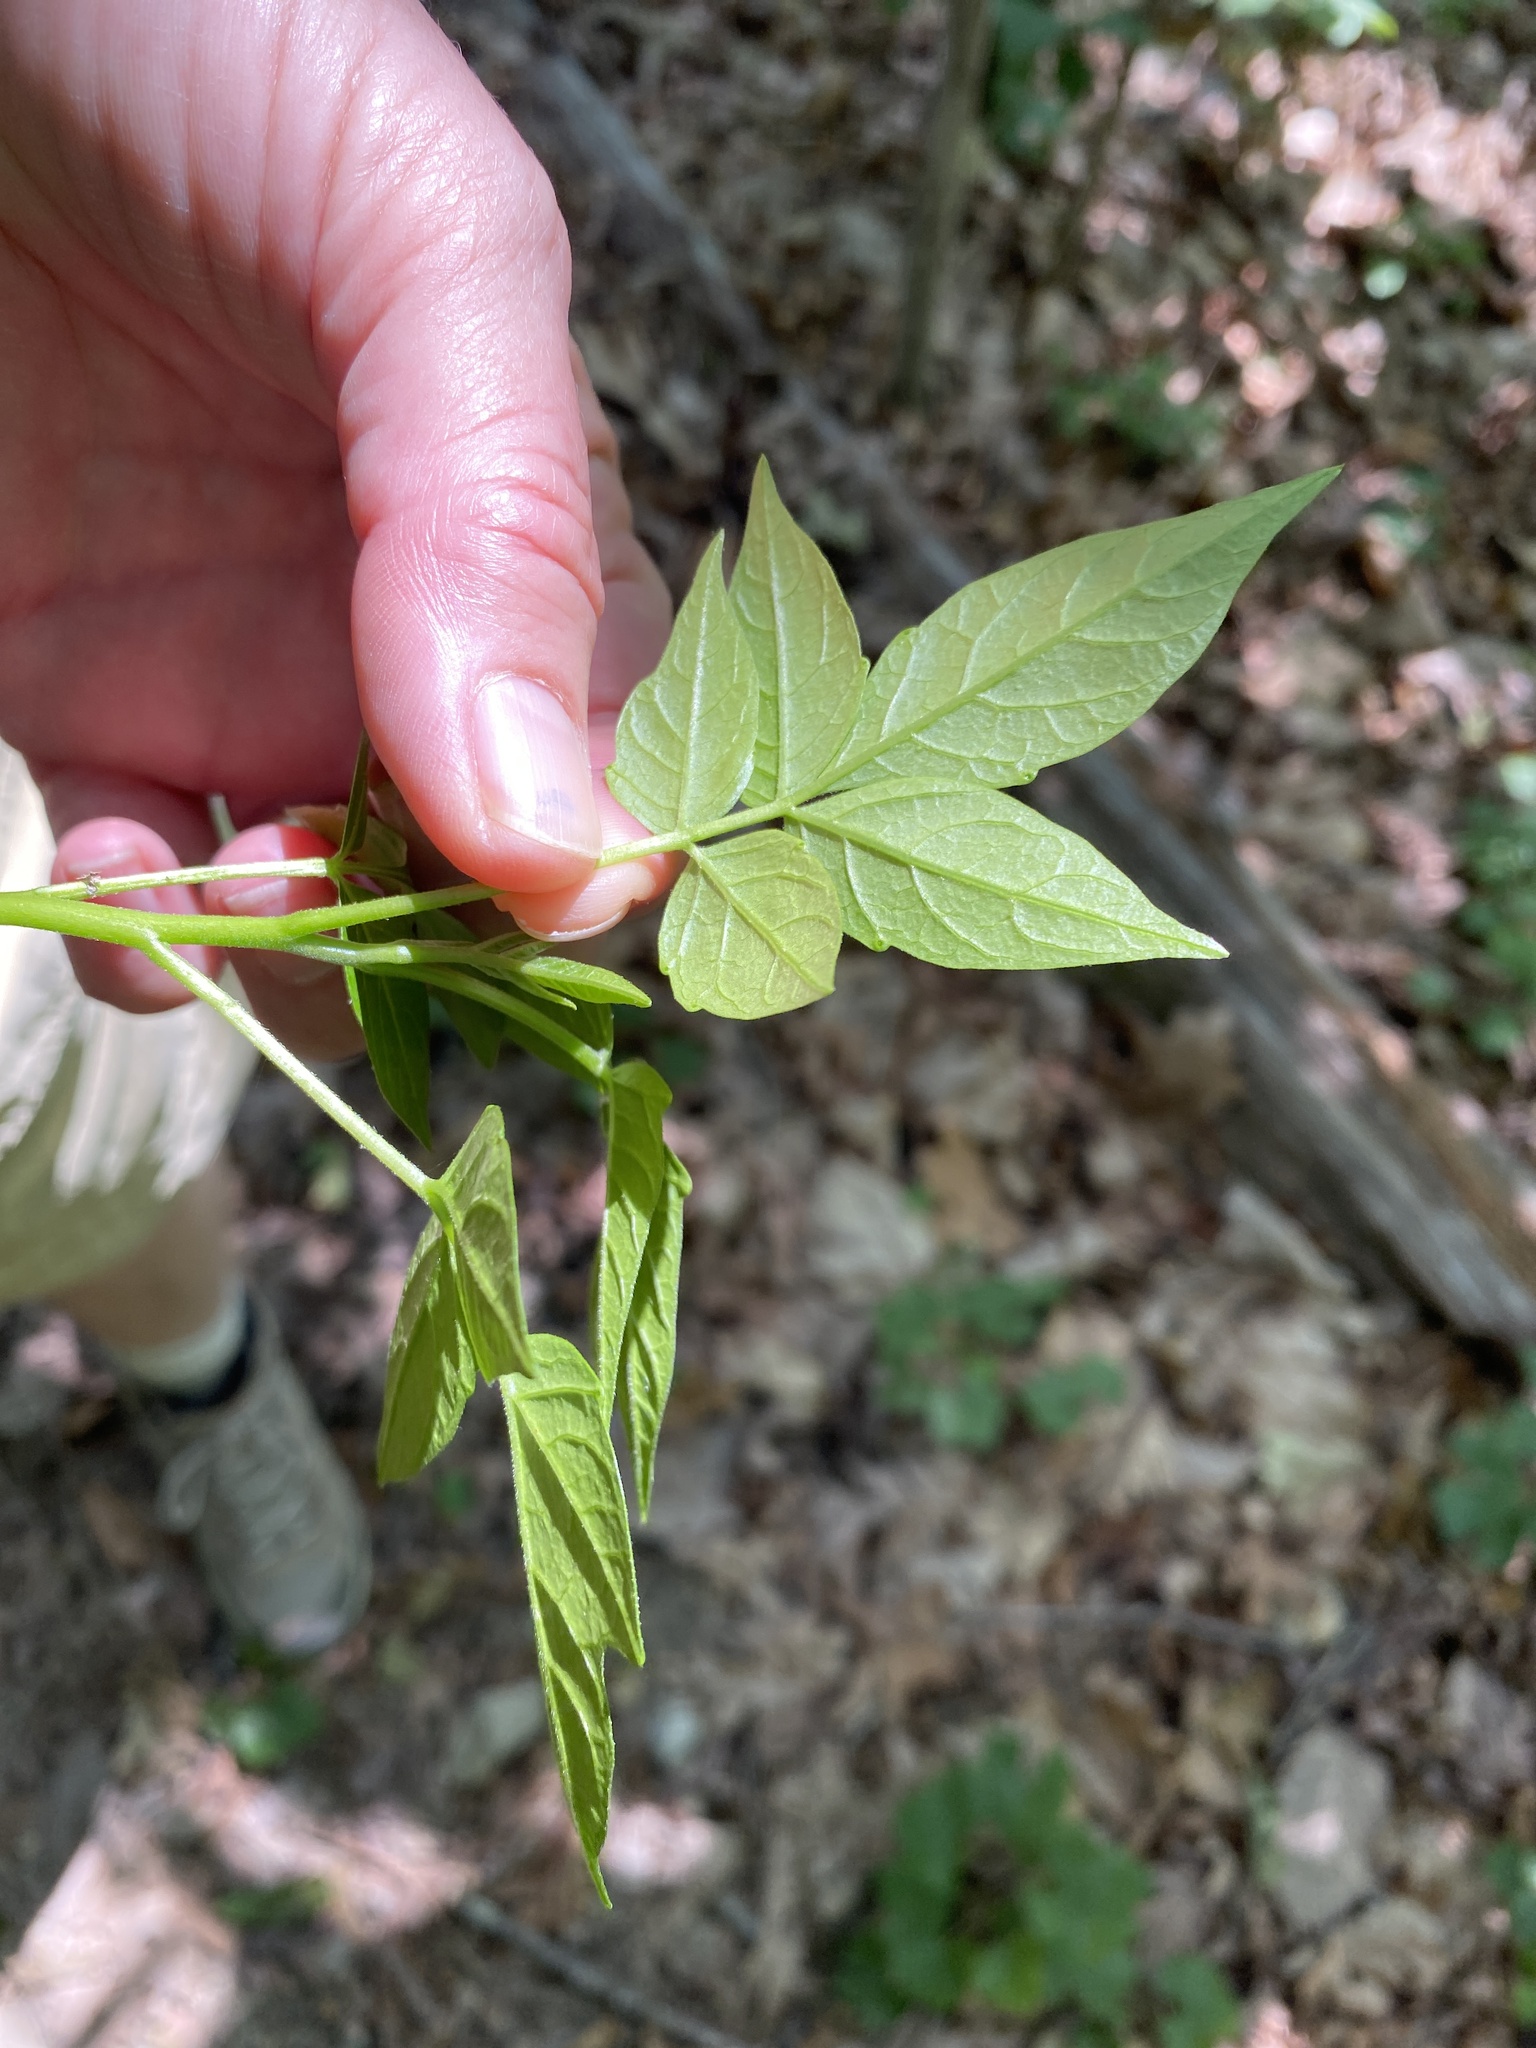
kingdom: Plantae
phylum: Tracheophyta
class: Magnoliopsida
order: Sapindales
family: Simaroubaceae
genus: Ailanthus
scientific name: Ailanthus altissima
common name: Tree-of-heaven
